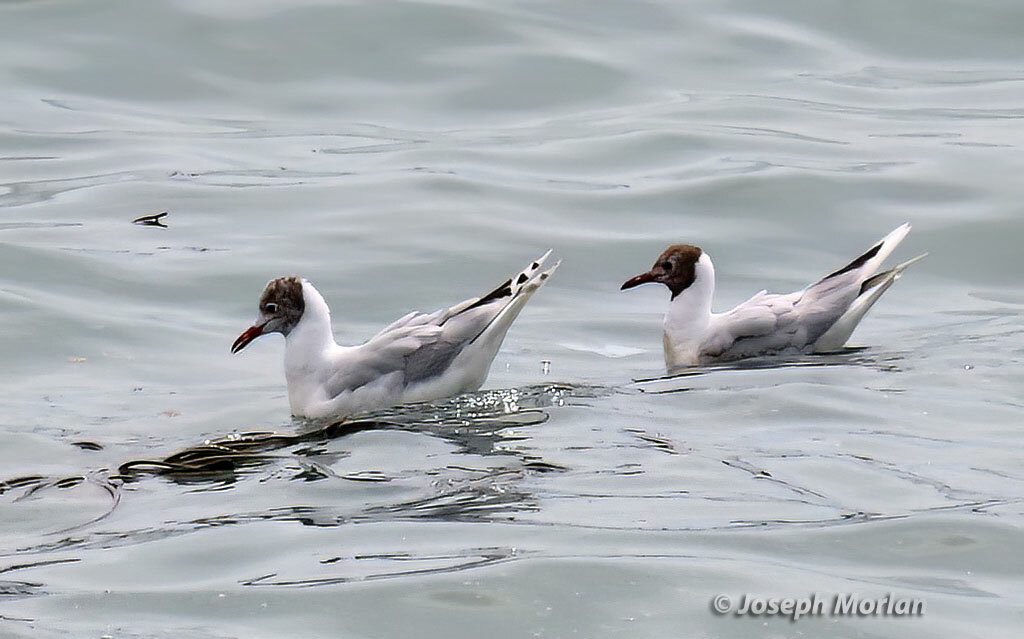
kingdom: Animalia
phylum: Chordata
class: Aves
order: Charadriiformes
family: Laridae
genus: Chroicocephalus
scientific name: Chroicocephalus maculipennis
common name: Brown-hooded gull
